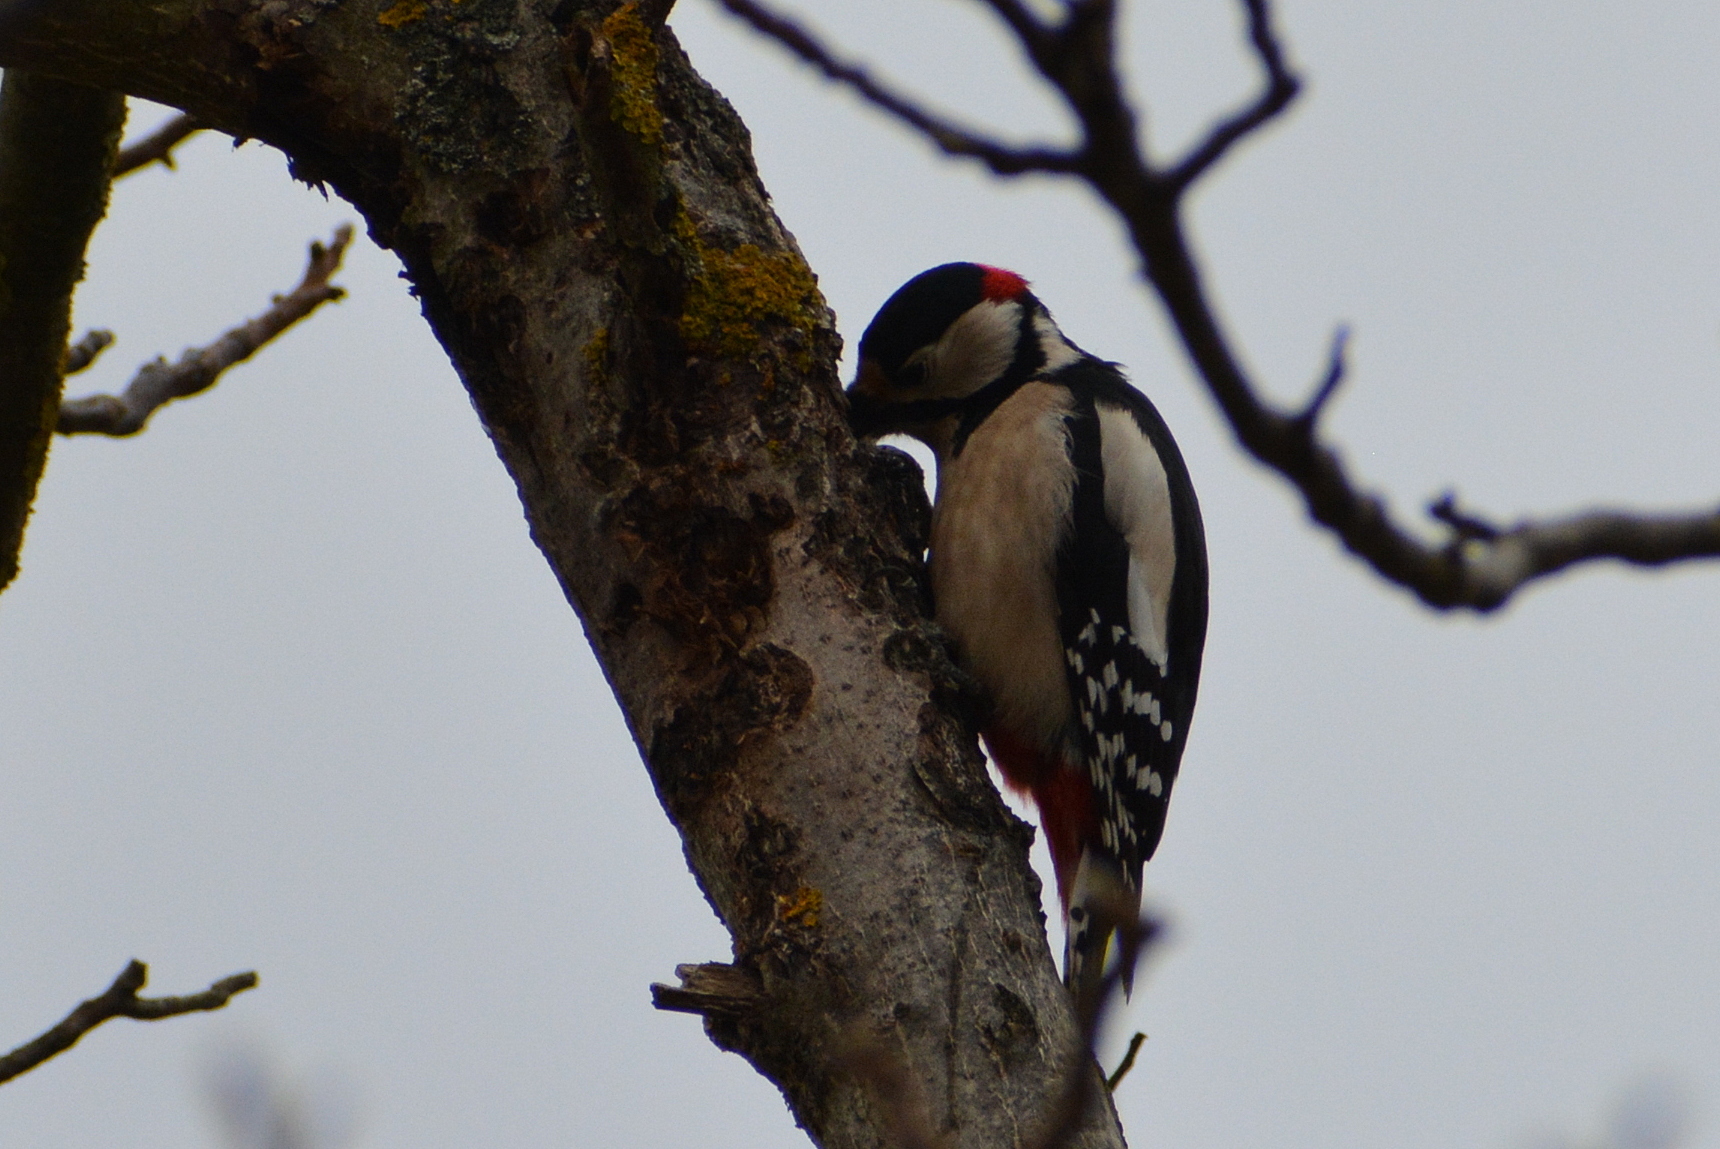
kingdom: Animalia
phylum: Chordata
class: Aves
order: Piciformes
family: Picidae
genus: Dendrocopos
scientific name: Dendrocopos major
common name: Great spotted woodpecker
